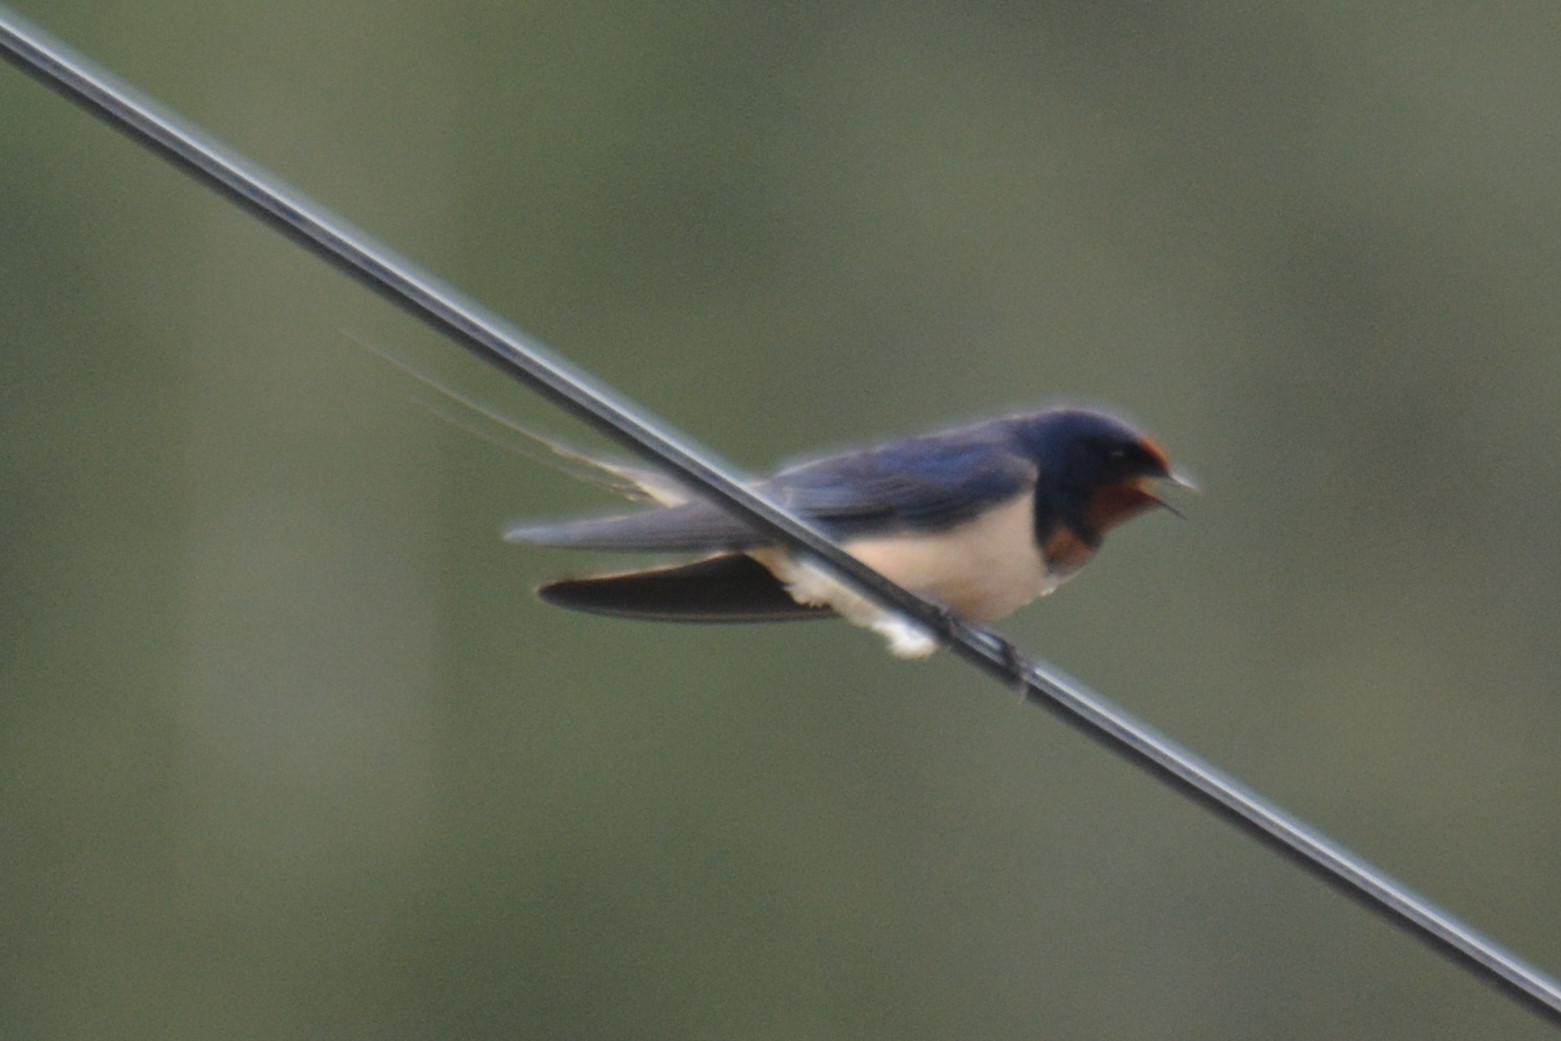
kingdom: Animalia
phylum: Chordata
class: Aves
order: Passeriformes
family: Hirundinidae
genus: Hirundo
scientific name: Hirundo rustica
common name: Barn swallow
